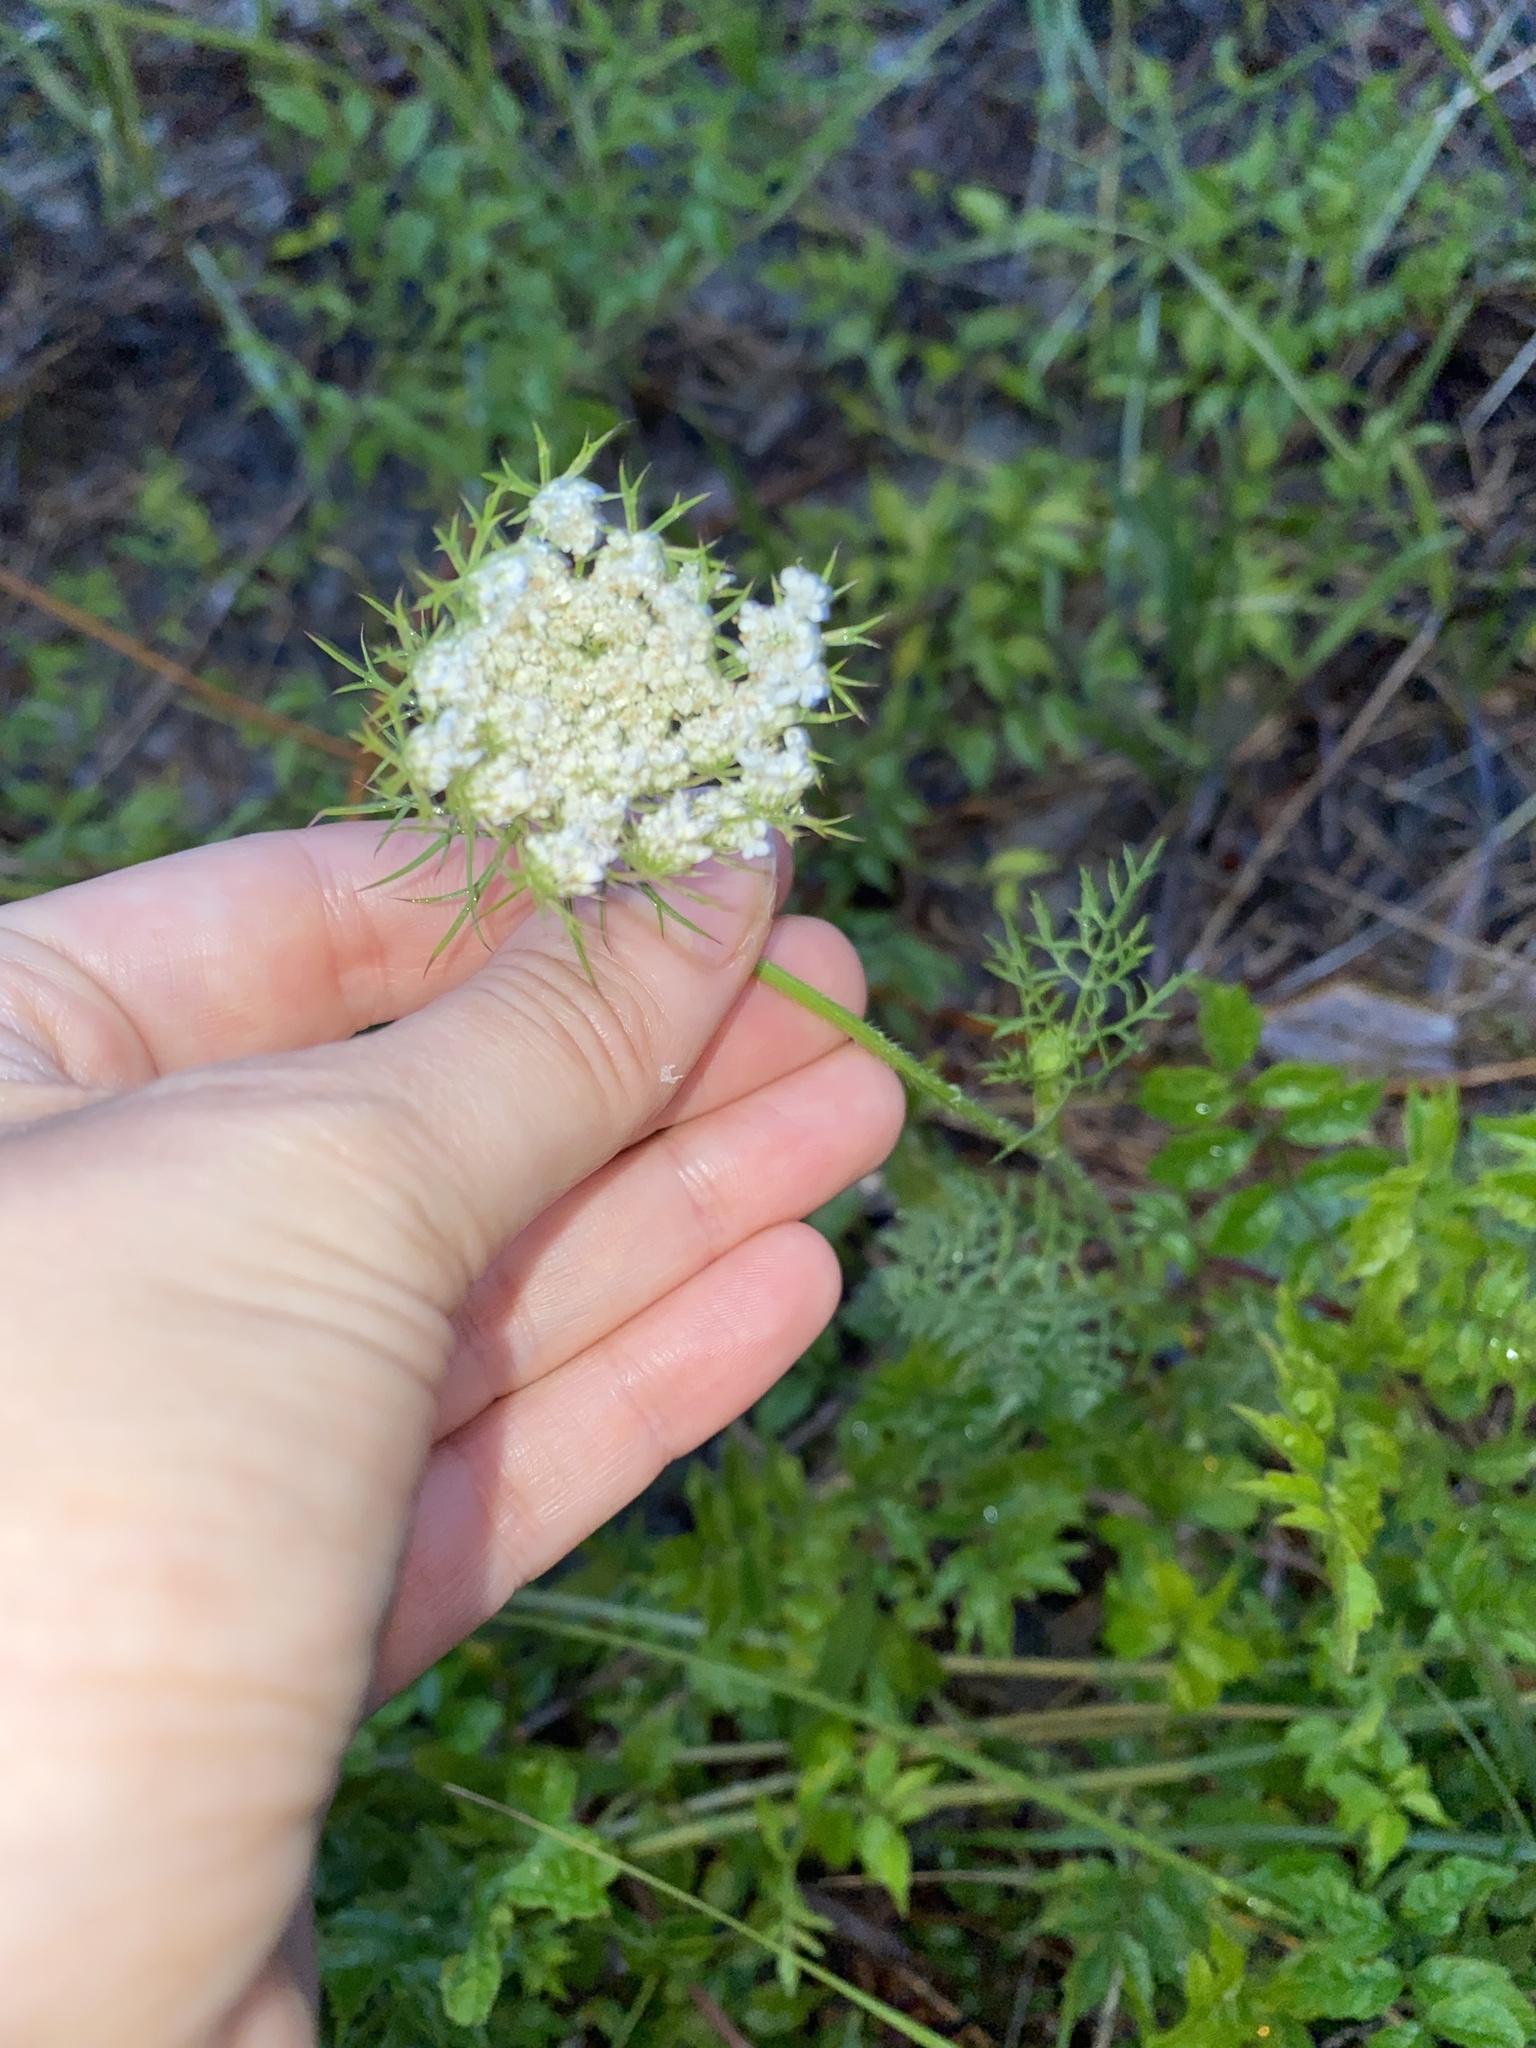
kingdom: Plantae
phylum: Tracheophyta
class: Magnoliopsida
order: Apiales
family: Apiaceae
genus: Daucus
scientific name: Daucus carota
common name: Wild carrot
